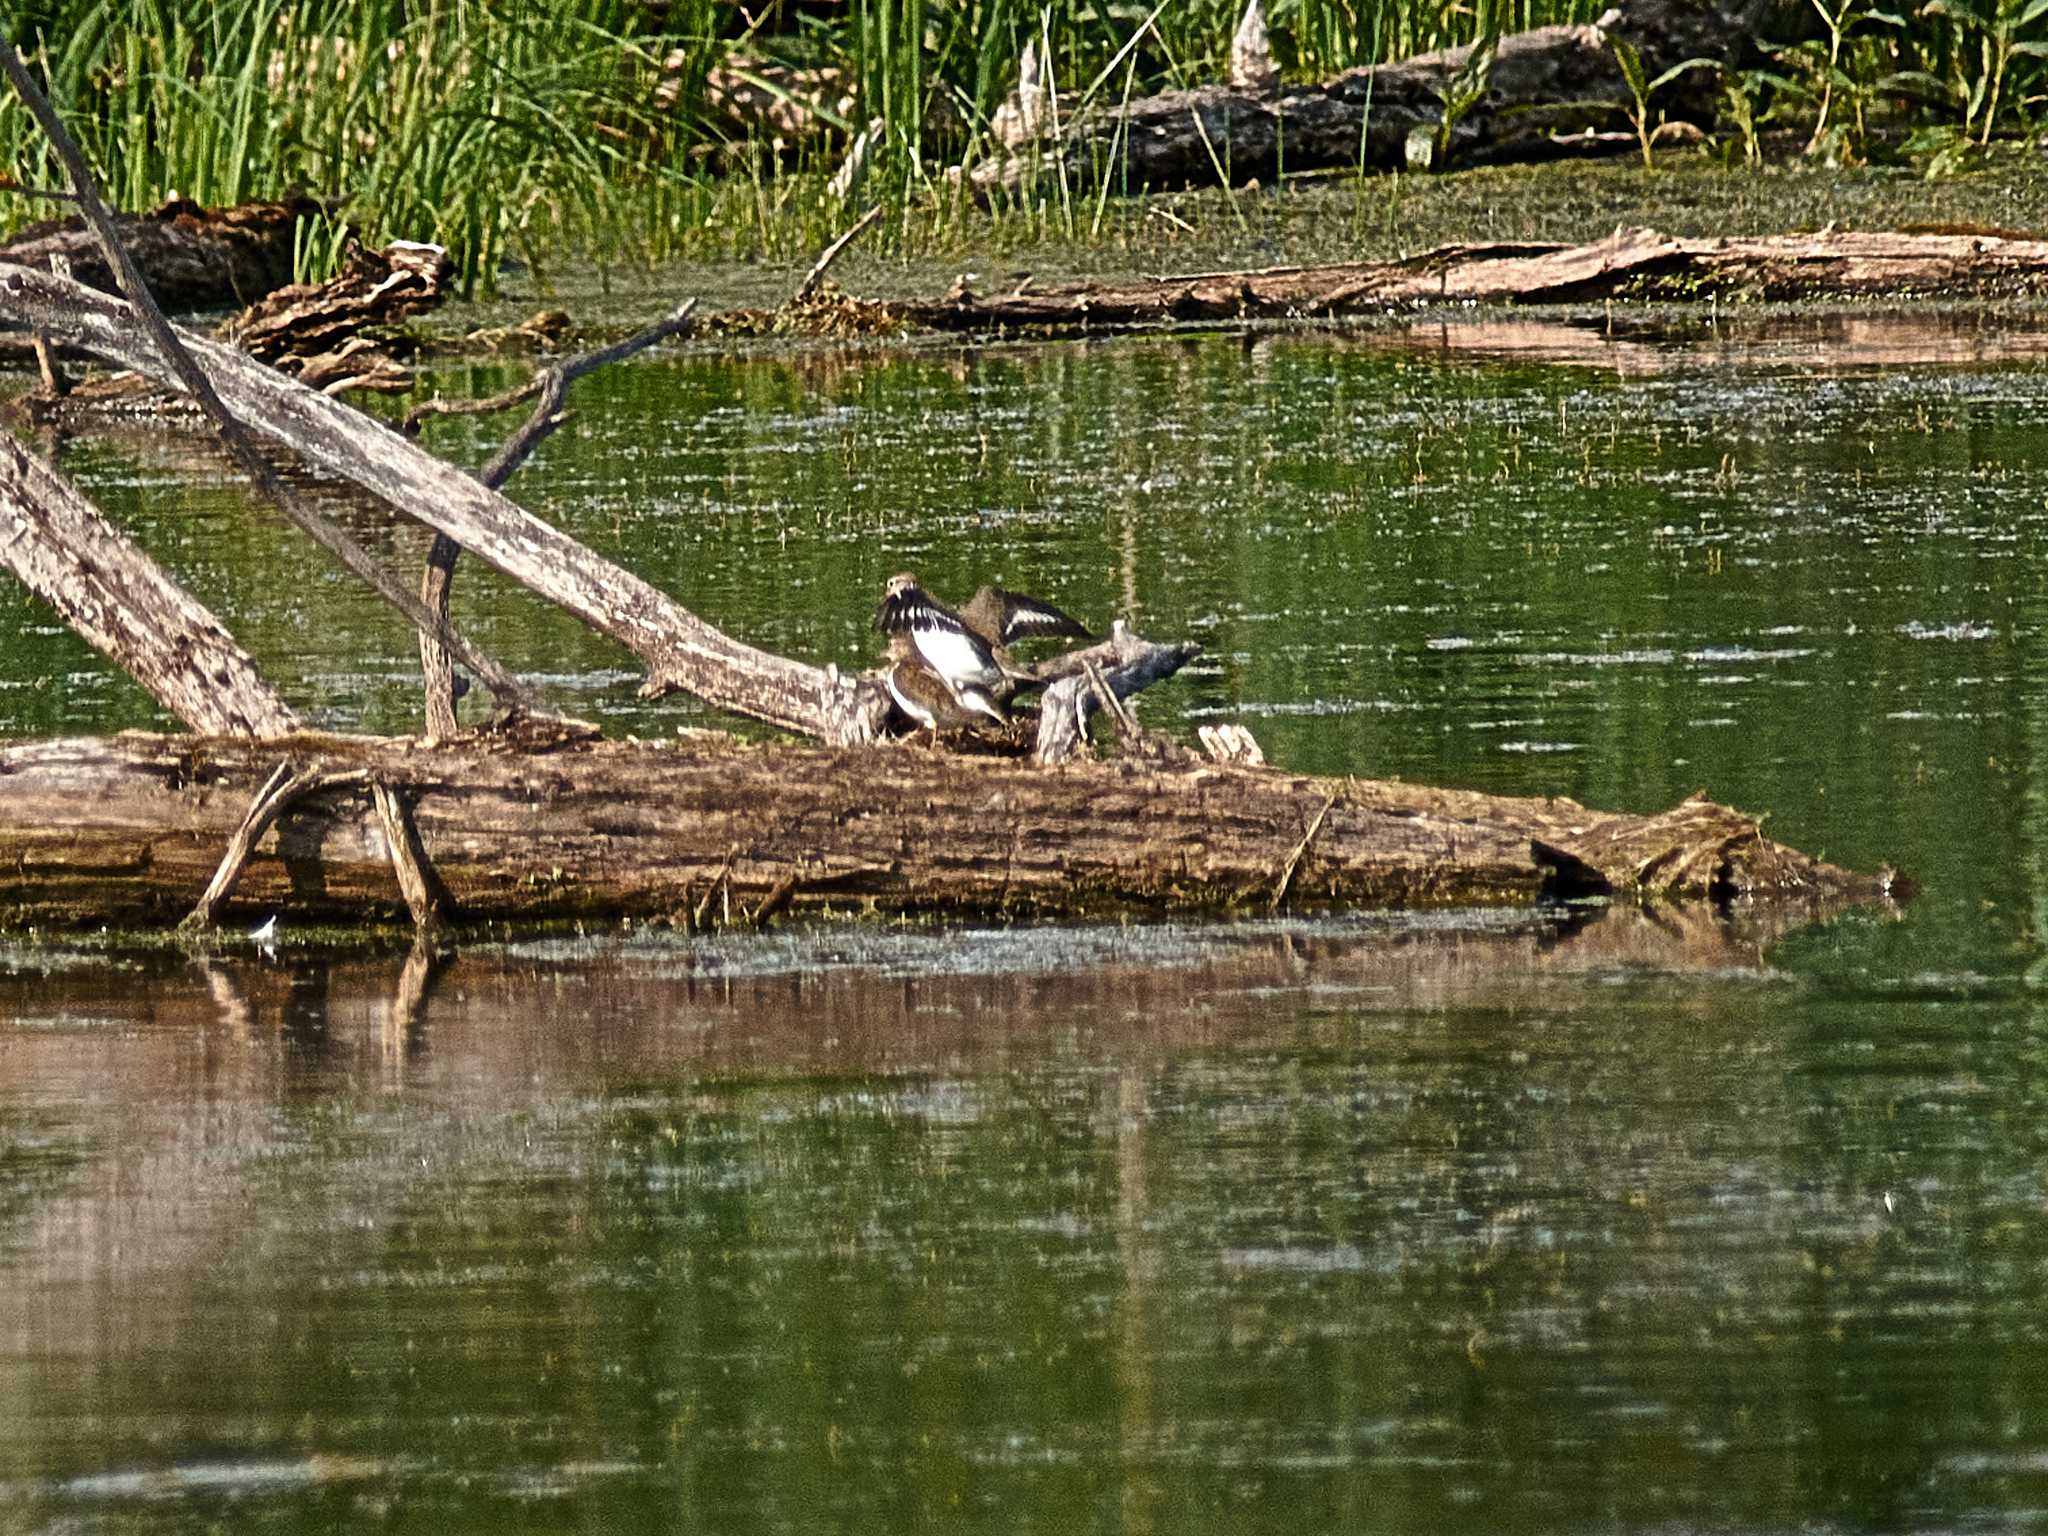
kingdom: Animalia
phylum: Chordata
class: Aves
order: Charadriiformes
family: Scolopacidae
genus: Actitis
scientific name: Actitis hypoleucos
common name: Common sandpiper
